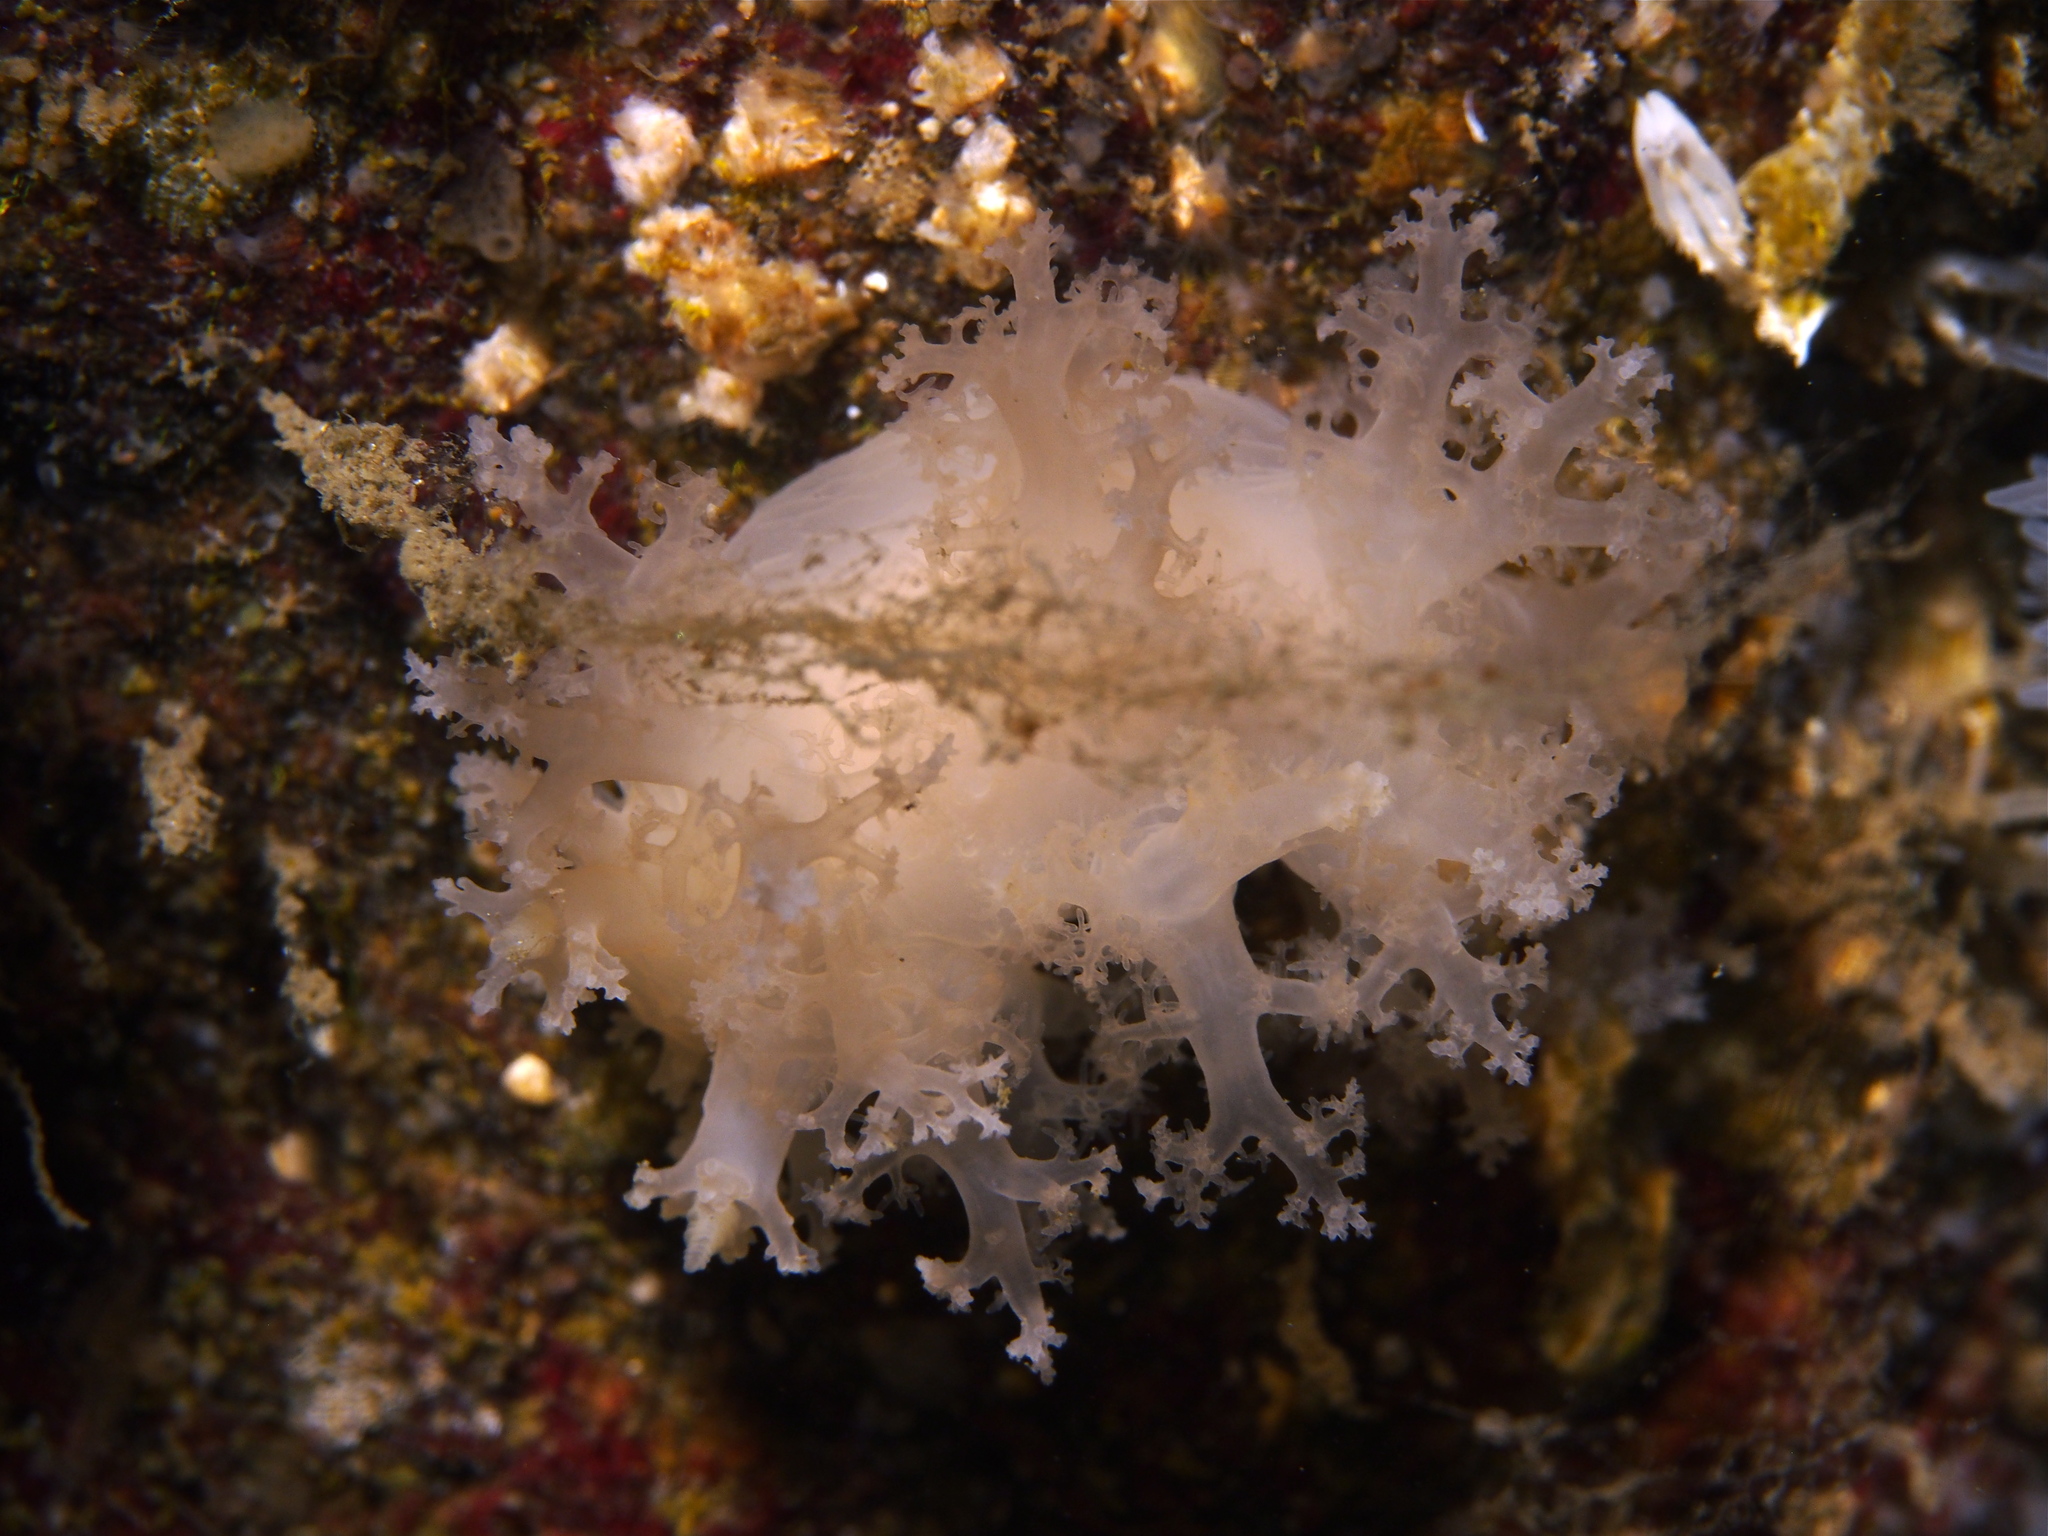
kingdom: Animalia
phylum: Mollusca
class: Gastropoda
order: Nudibranchia
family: Dendronotidae
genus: Dendronotus
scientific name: Dendronotus lacteus
